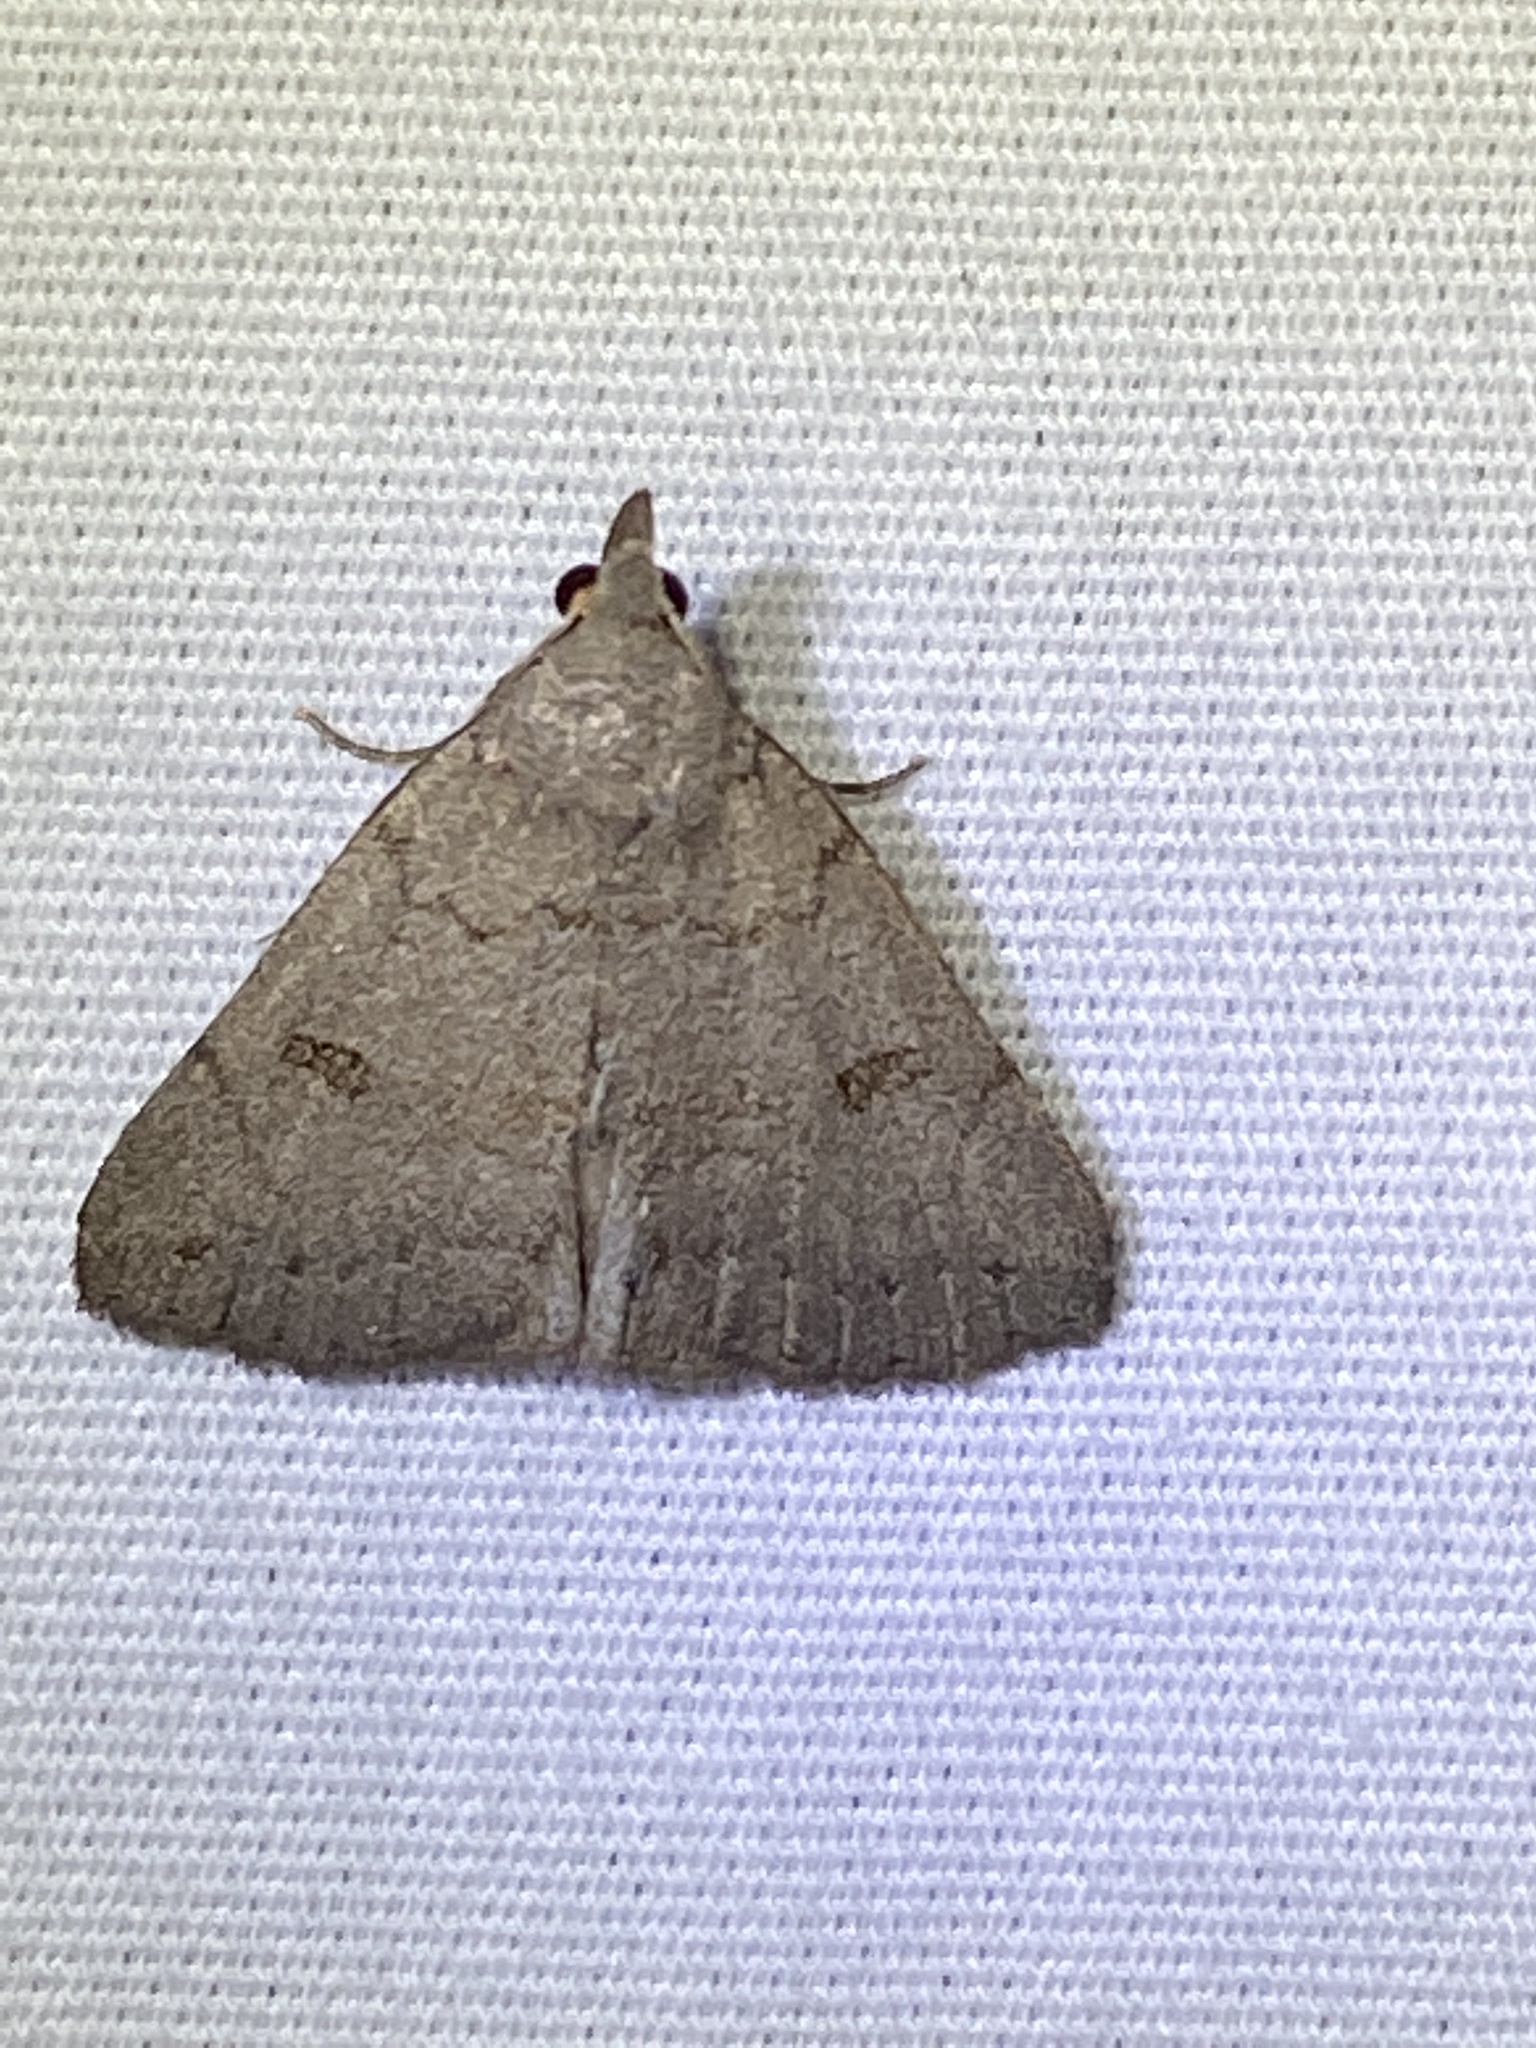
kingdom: Animalia
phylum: Arthropoda
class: Insecta
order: Lepidoptera
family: Erebidae
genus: Macrochilo
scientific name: Macrochilo morbidalis
